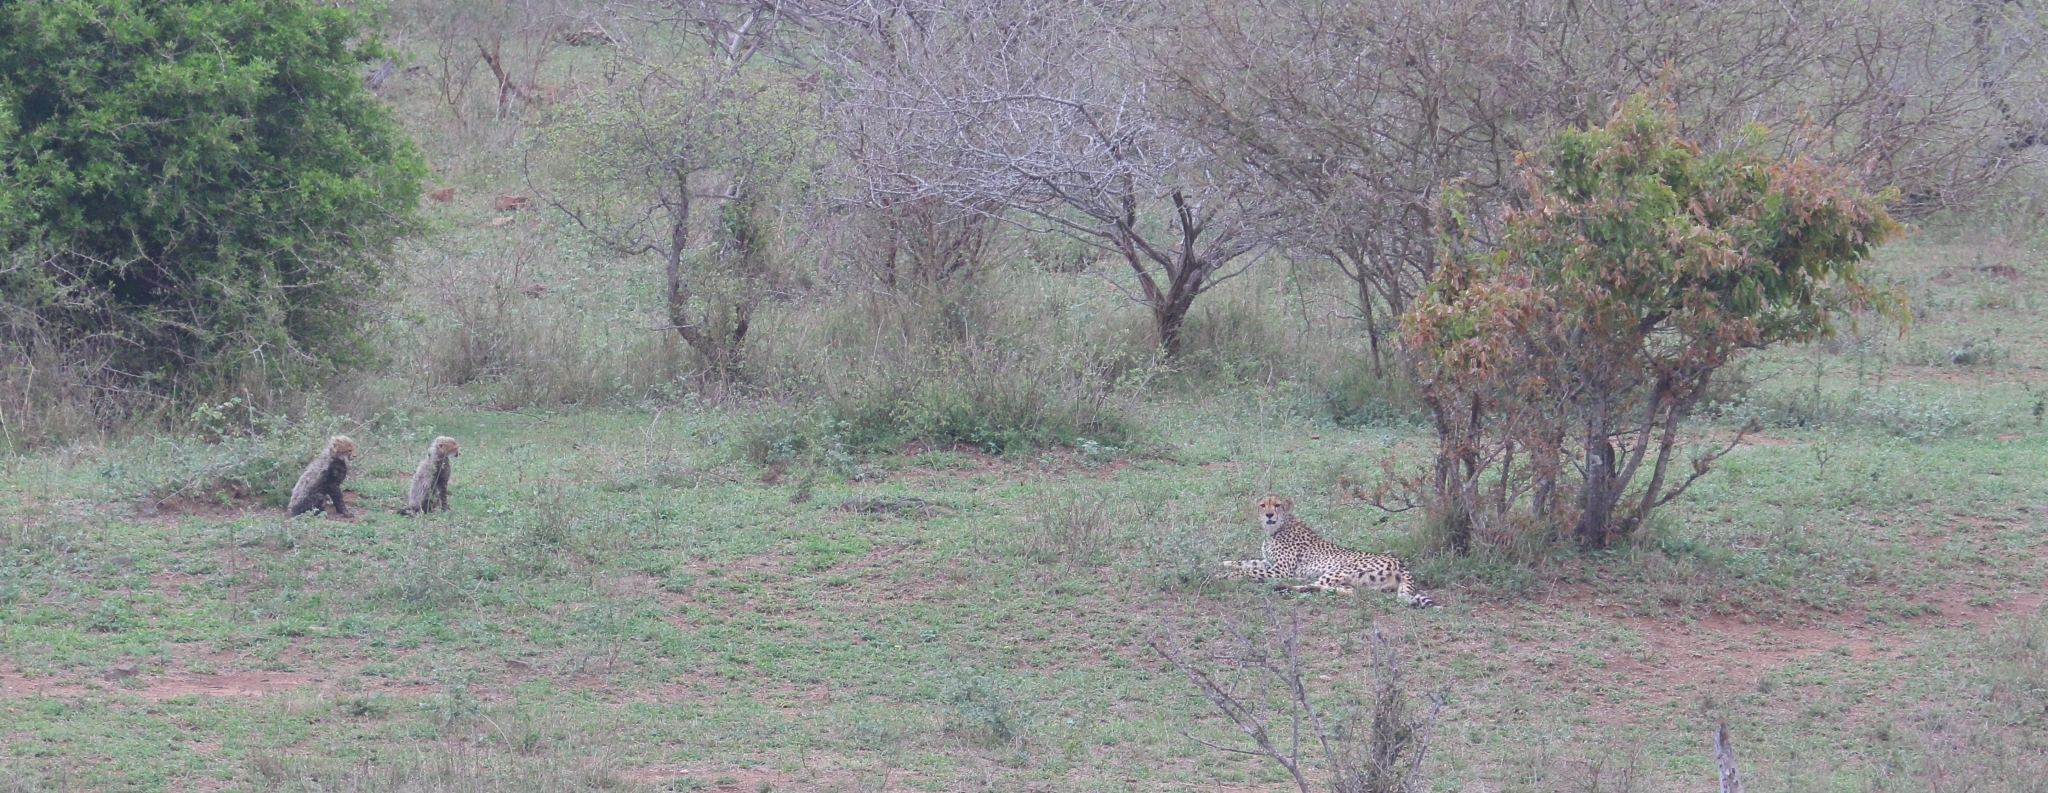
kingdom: Animalia
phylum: Chordata
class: Mammalia
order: Carnivora
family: Felidae
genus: Acinonyx
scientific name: Acinonyx jubatus
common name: Cheetah
